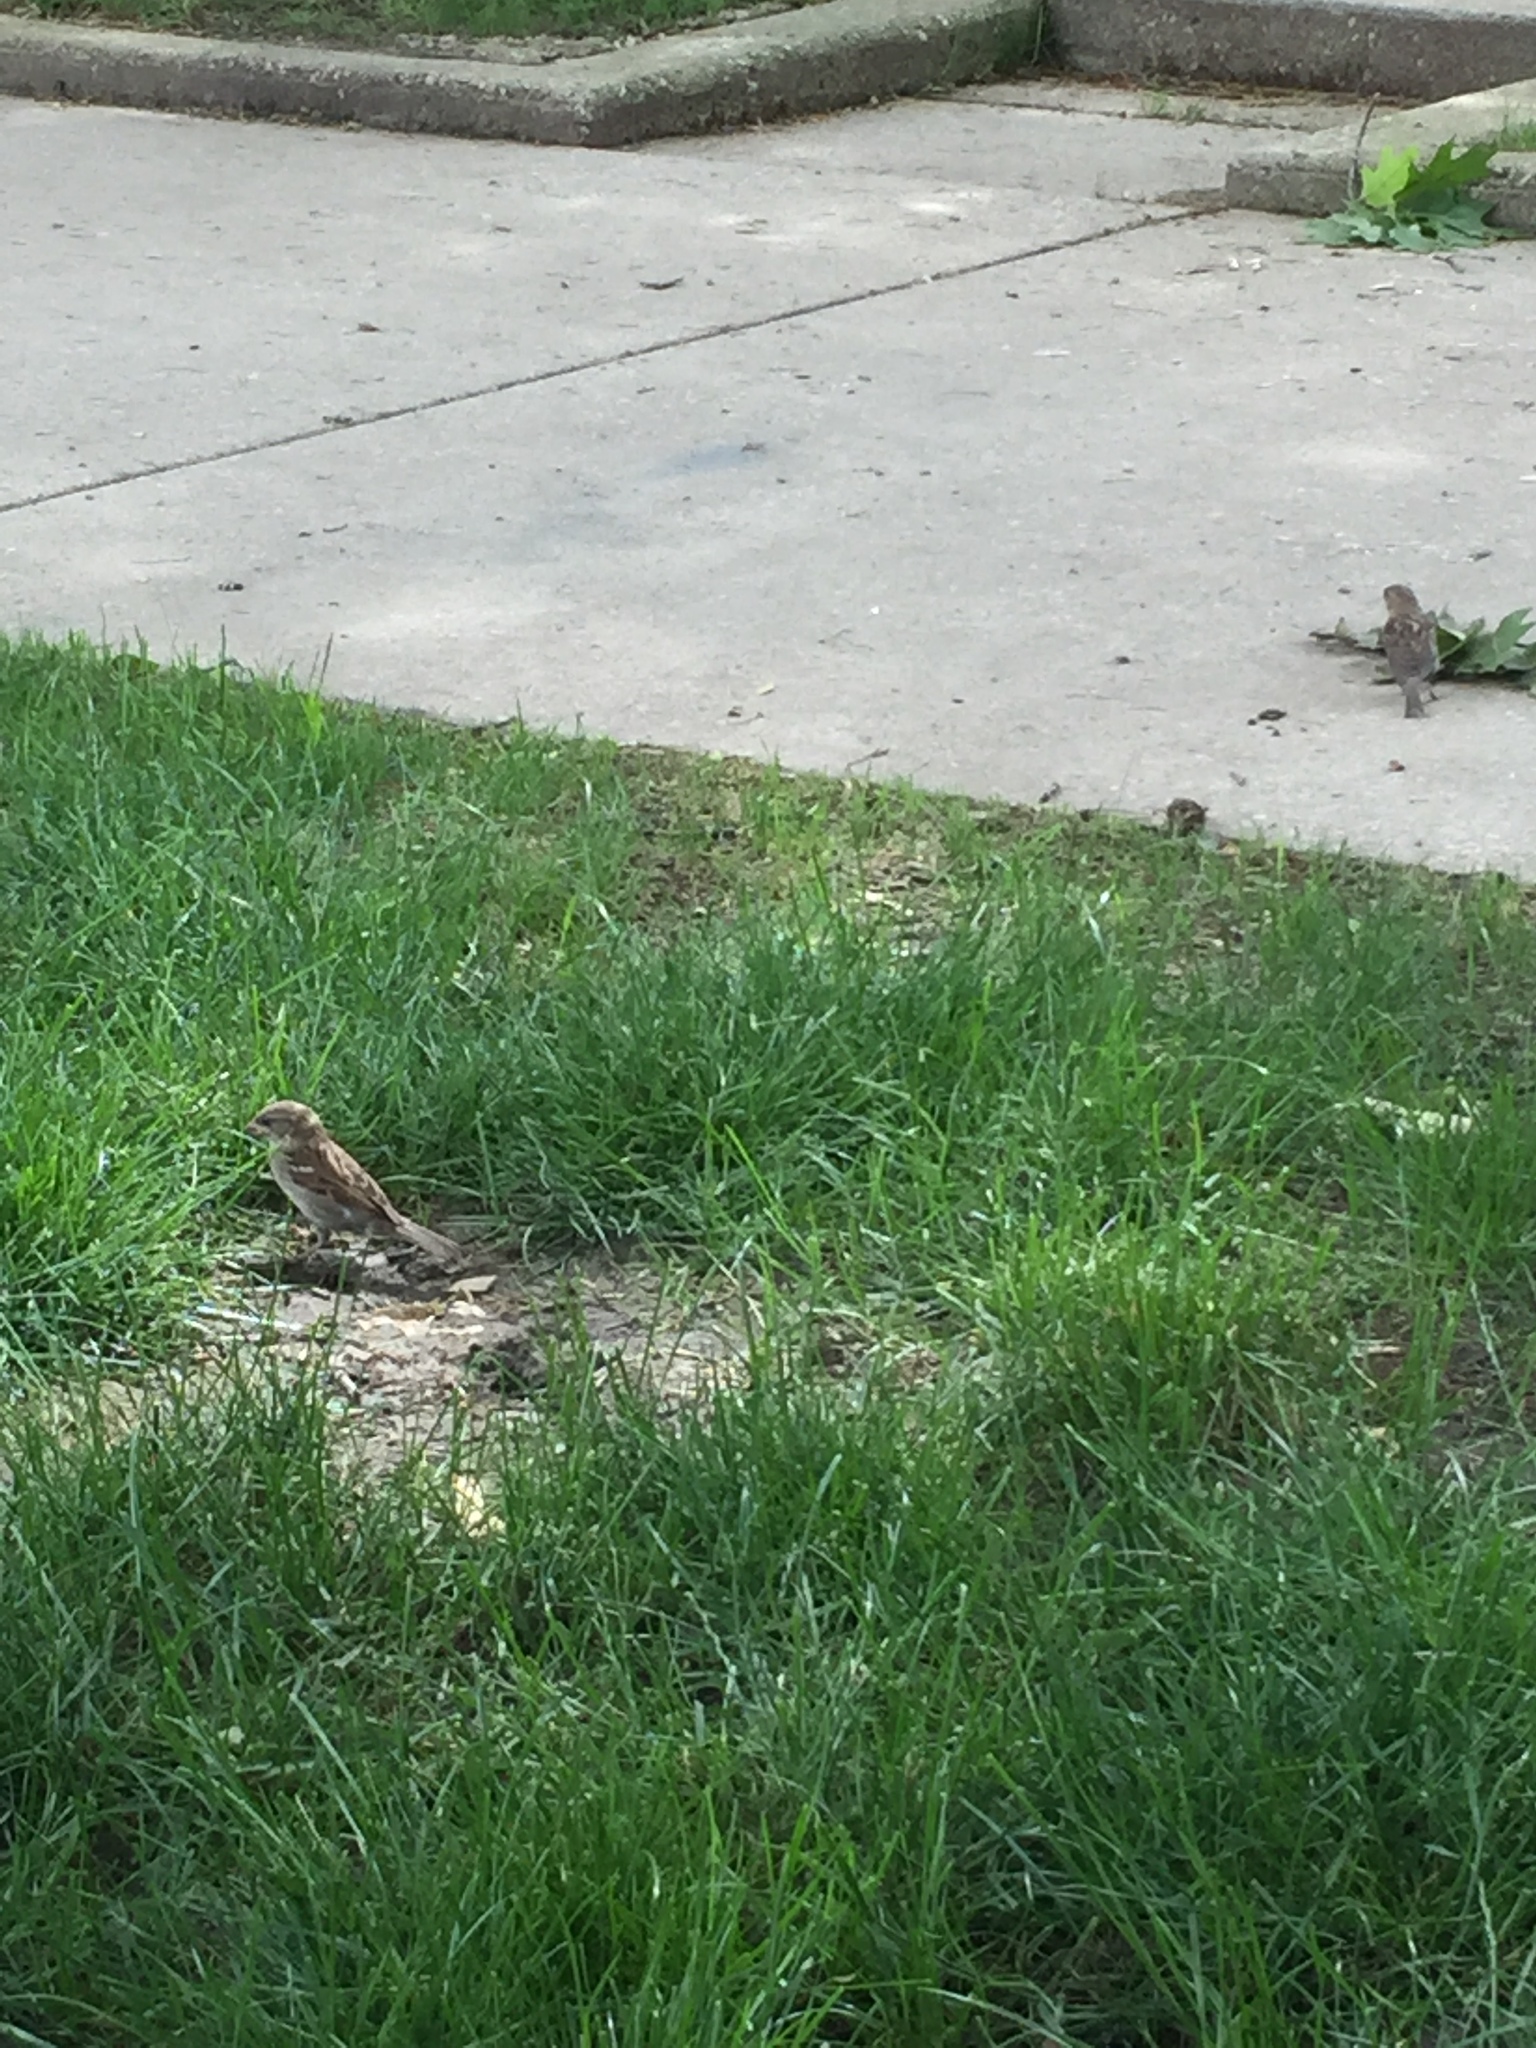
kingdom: Animalia
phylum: Chordata
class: Aves
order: Passeriformes
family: Passeridae
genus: Passer
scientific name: Passer domesticus
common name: House sparrow
